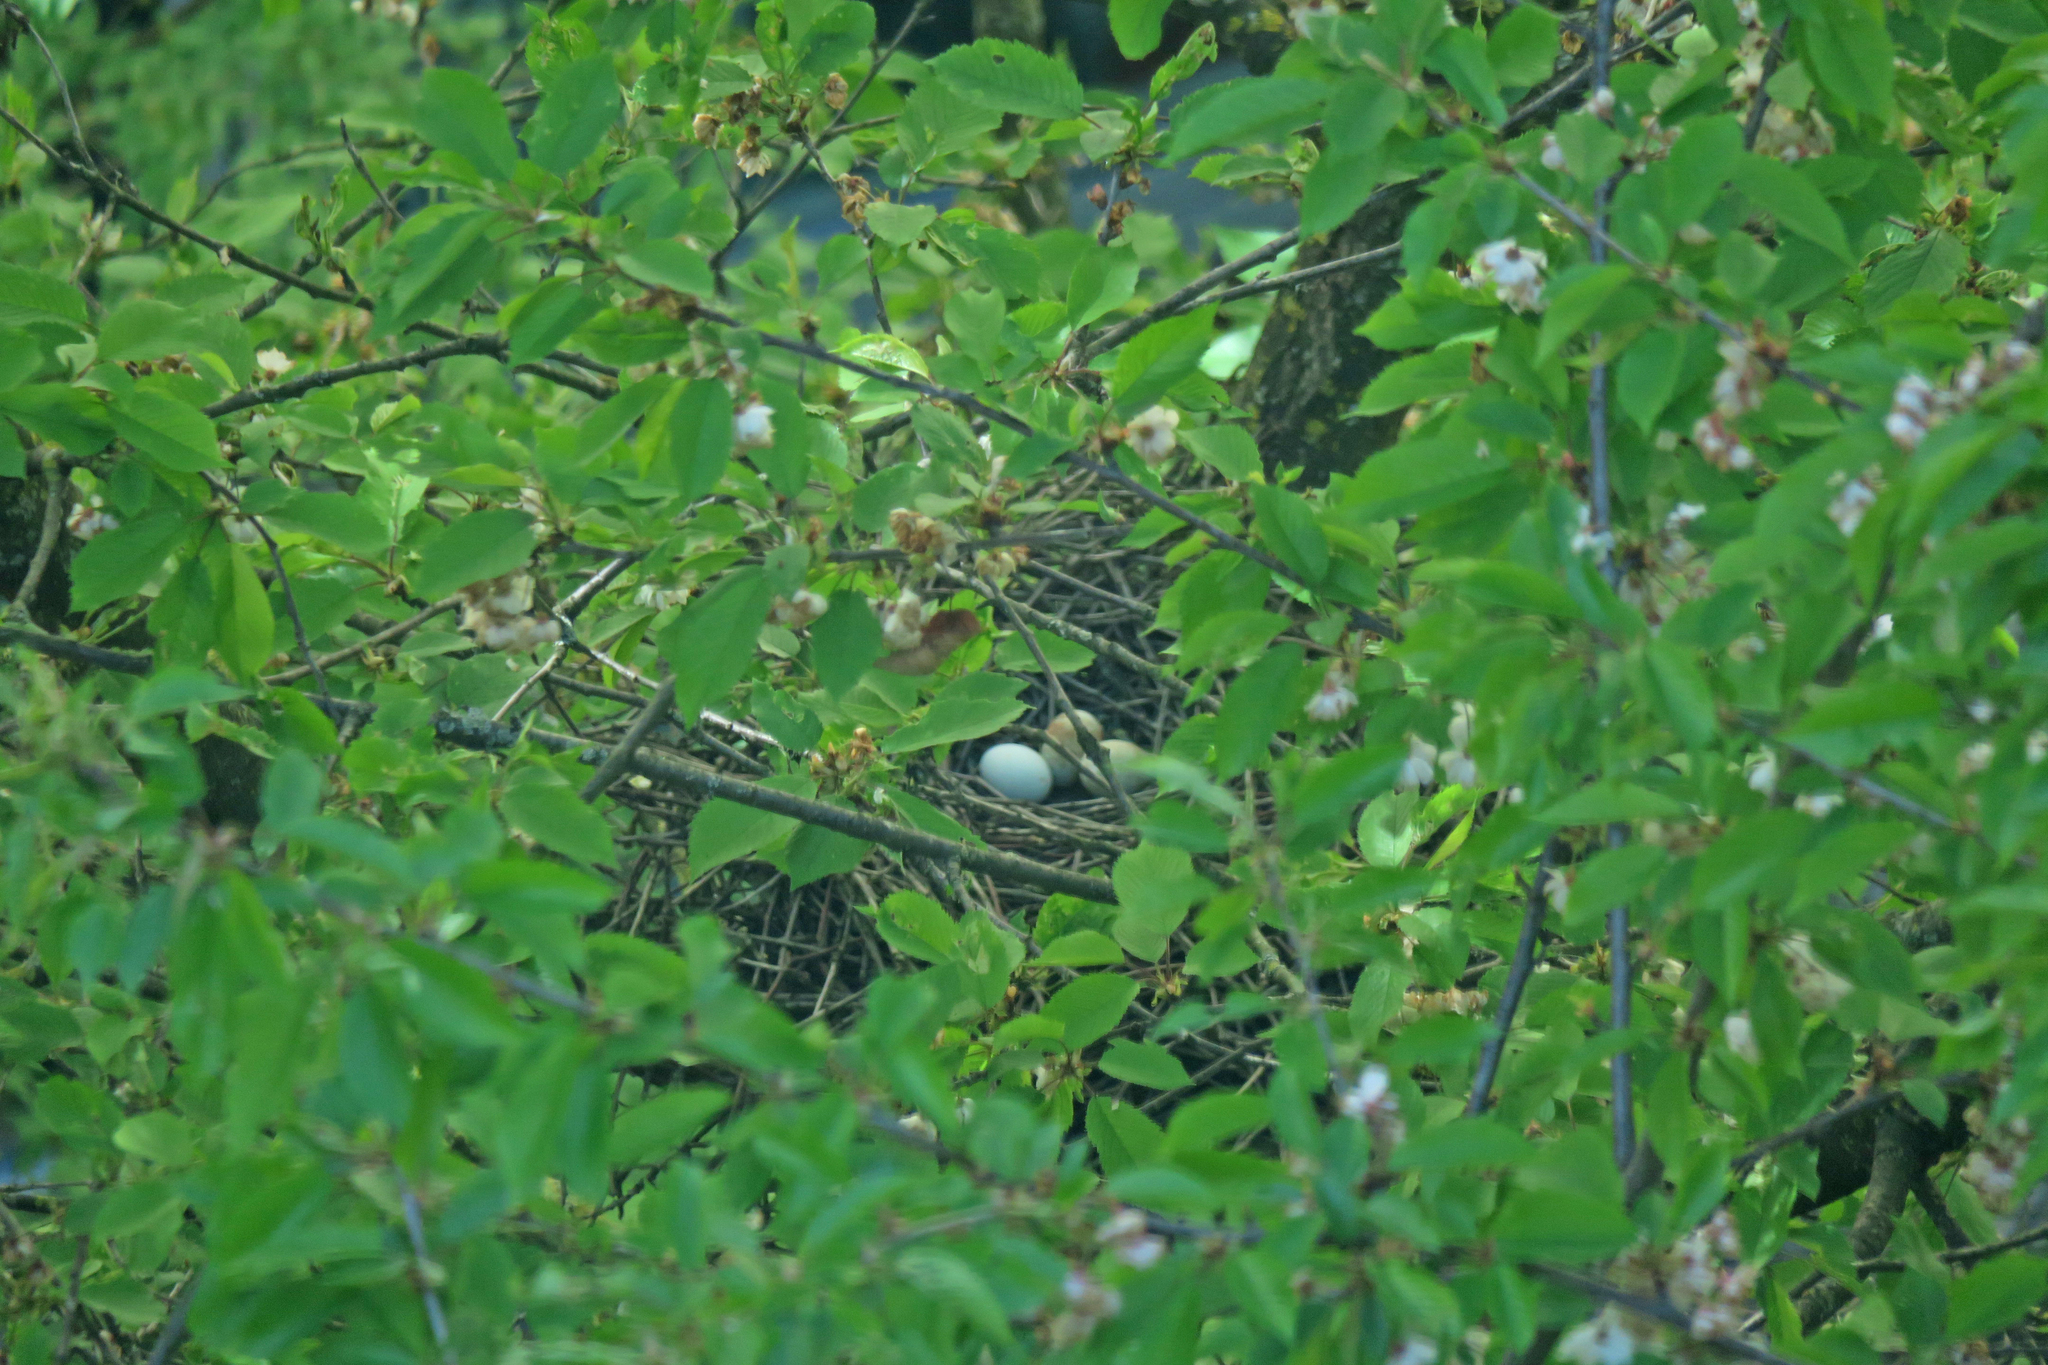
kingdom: Animalia
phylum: Chordata
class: Aves
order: Accipitriformes
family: Accipitridae
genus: Accipiter
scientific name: Accipiter nisus
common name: Eurasian sparrowhawk
